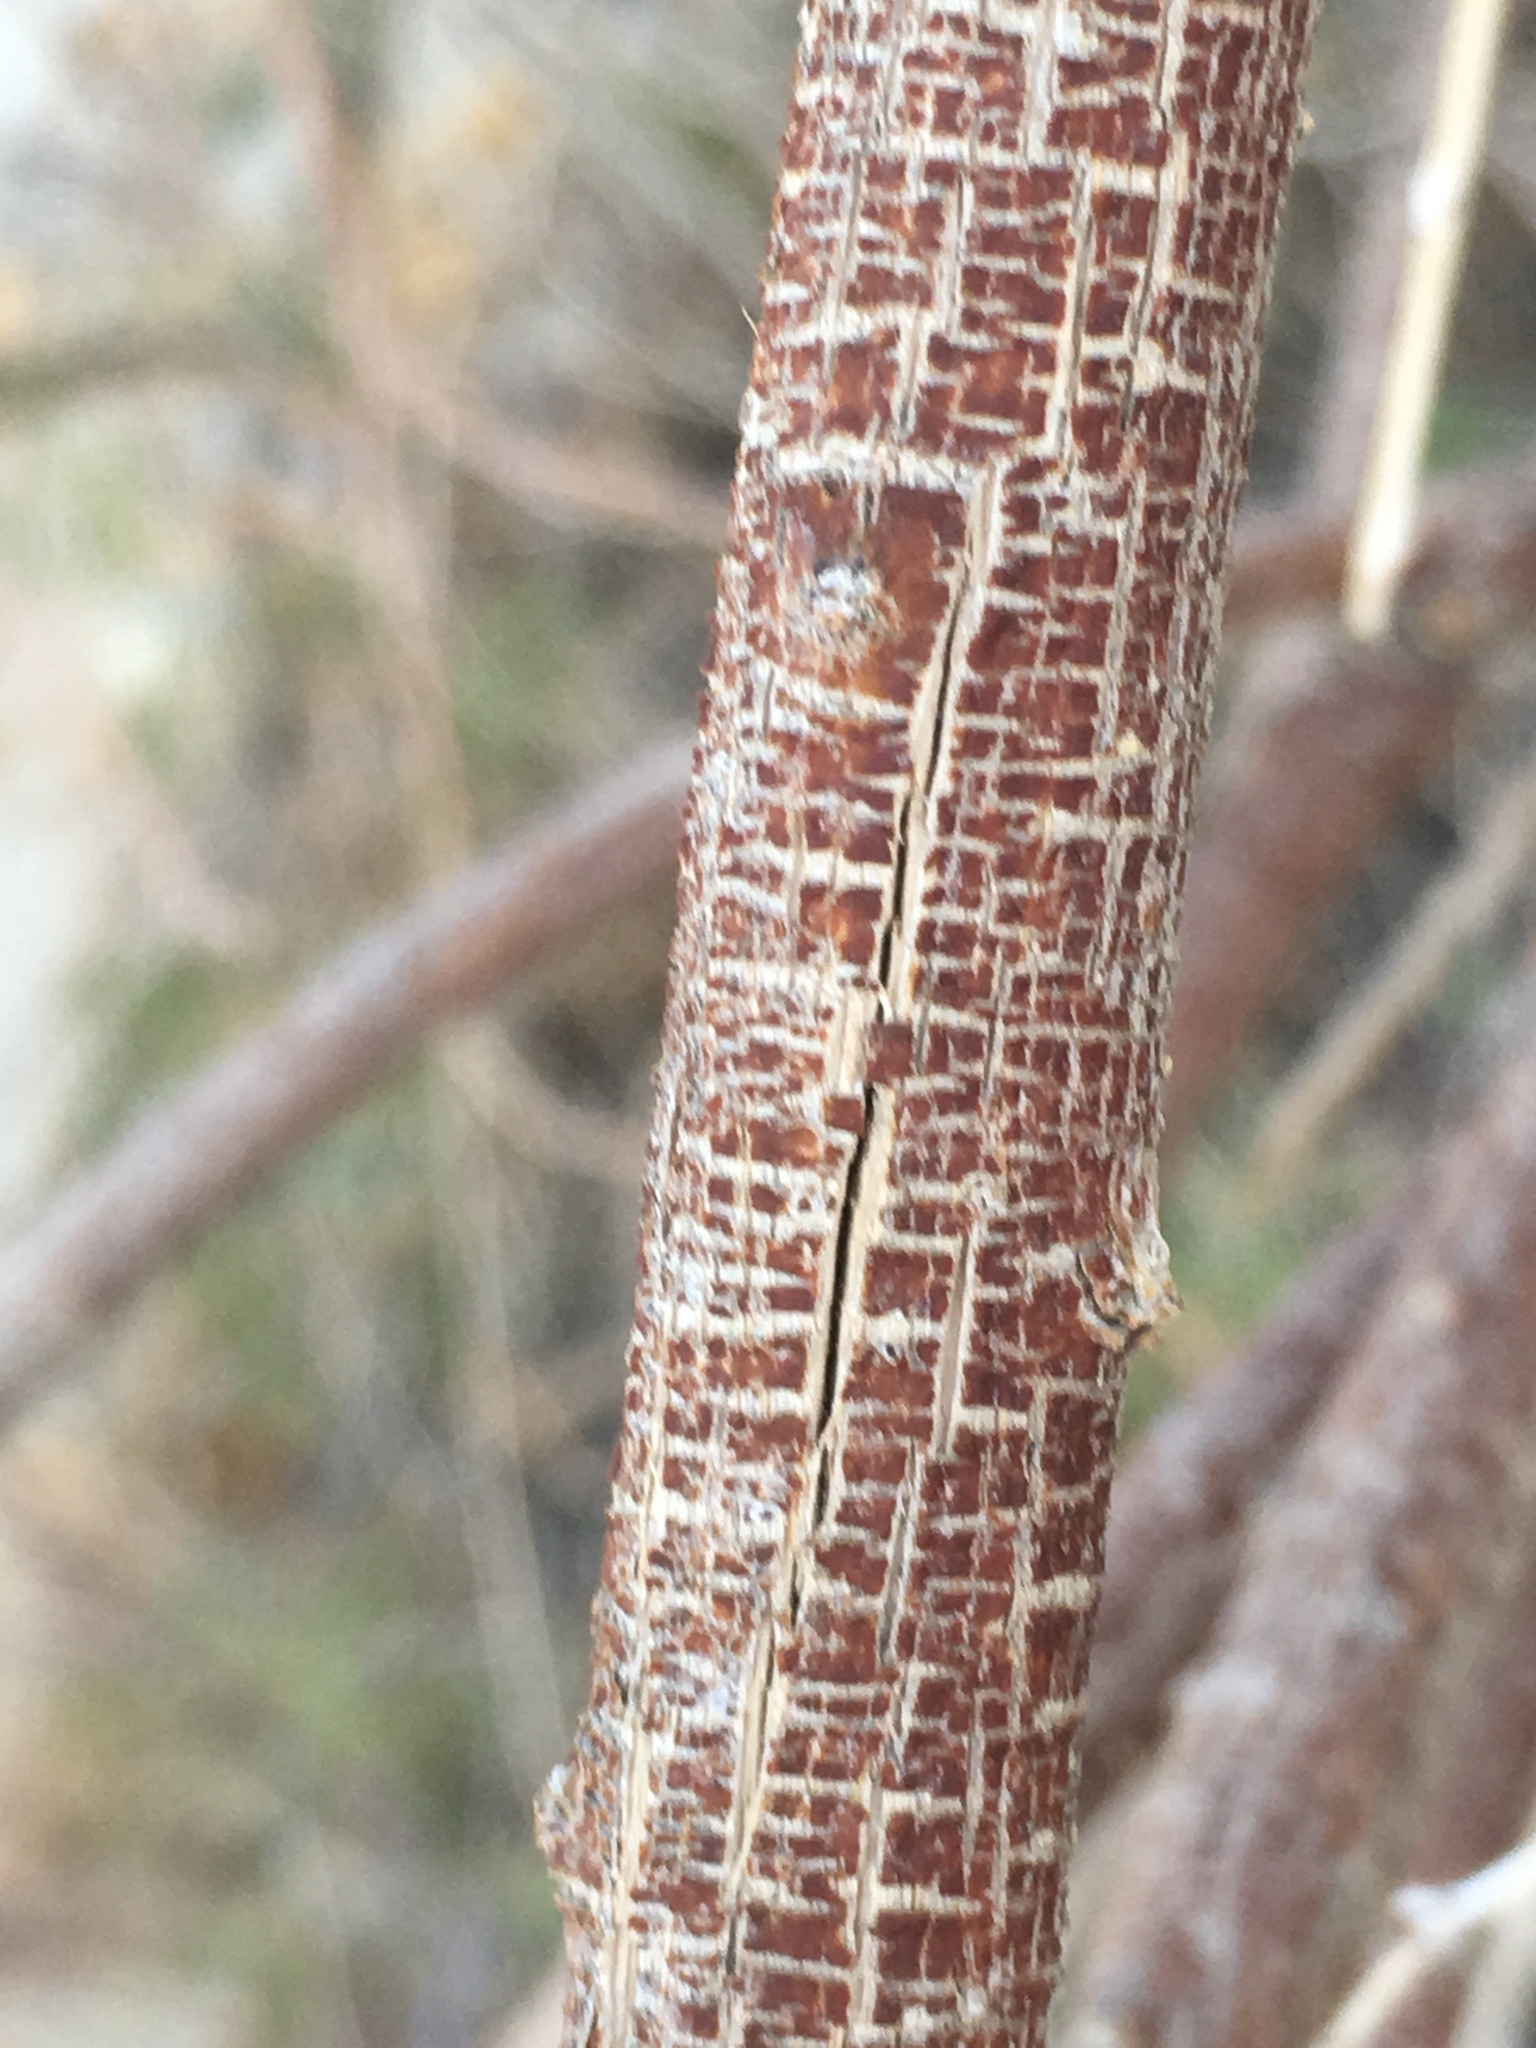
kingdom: Plantae
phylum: Tracheophyta
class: Magnoliopsida
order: Lamiales
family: Bignoniaceae
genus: Chilopsis
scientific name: Chilopsis linearis
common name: Desert-willow
